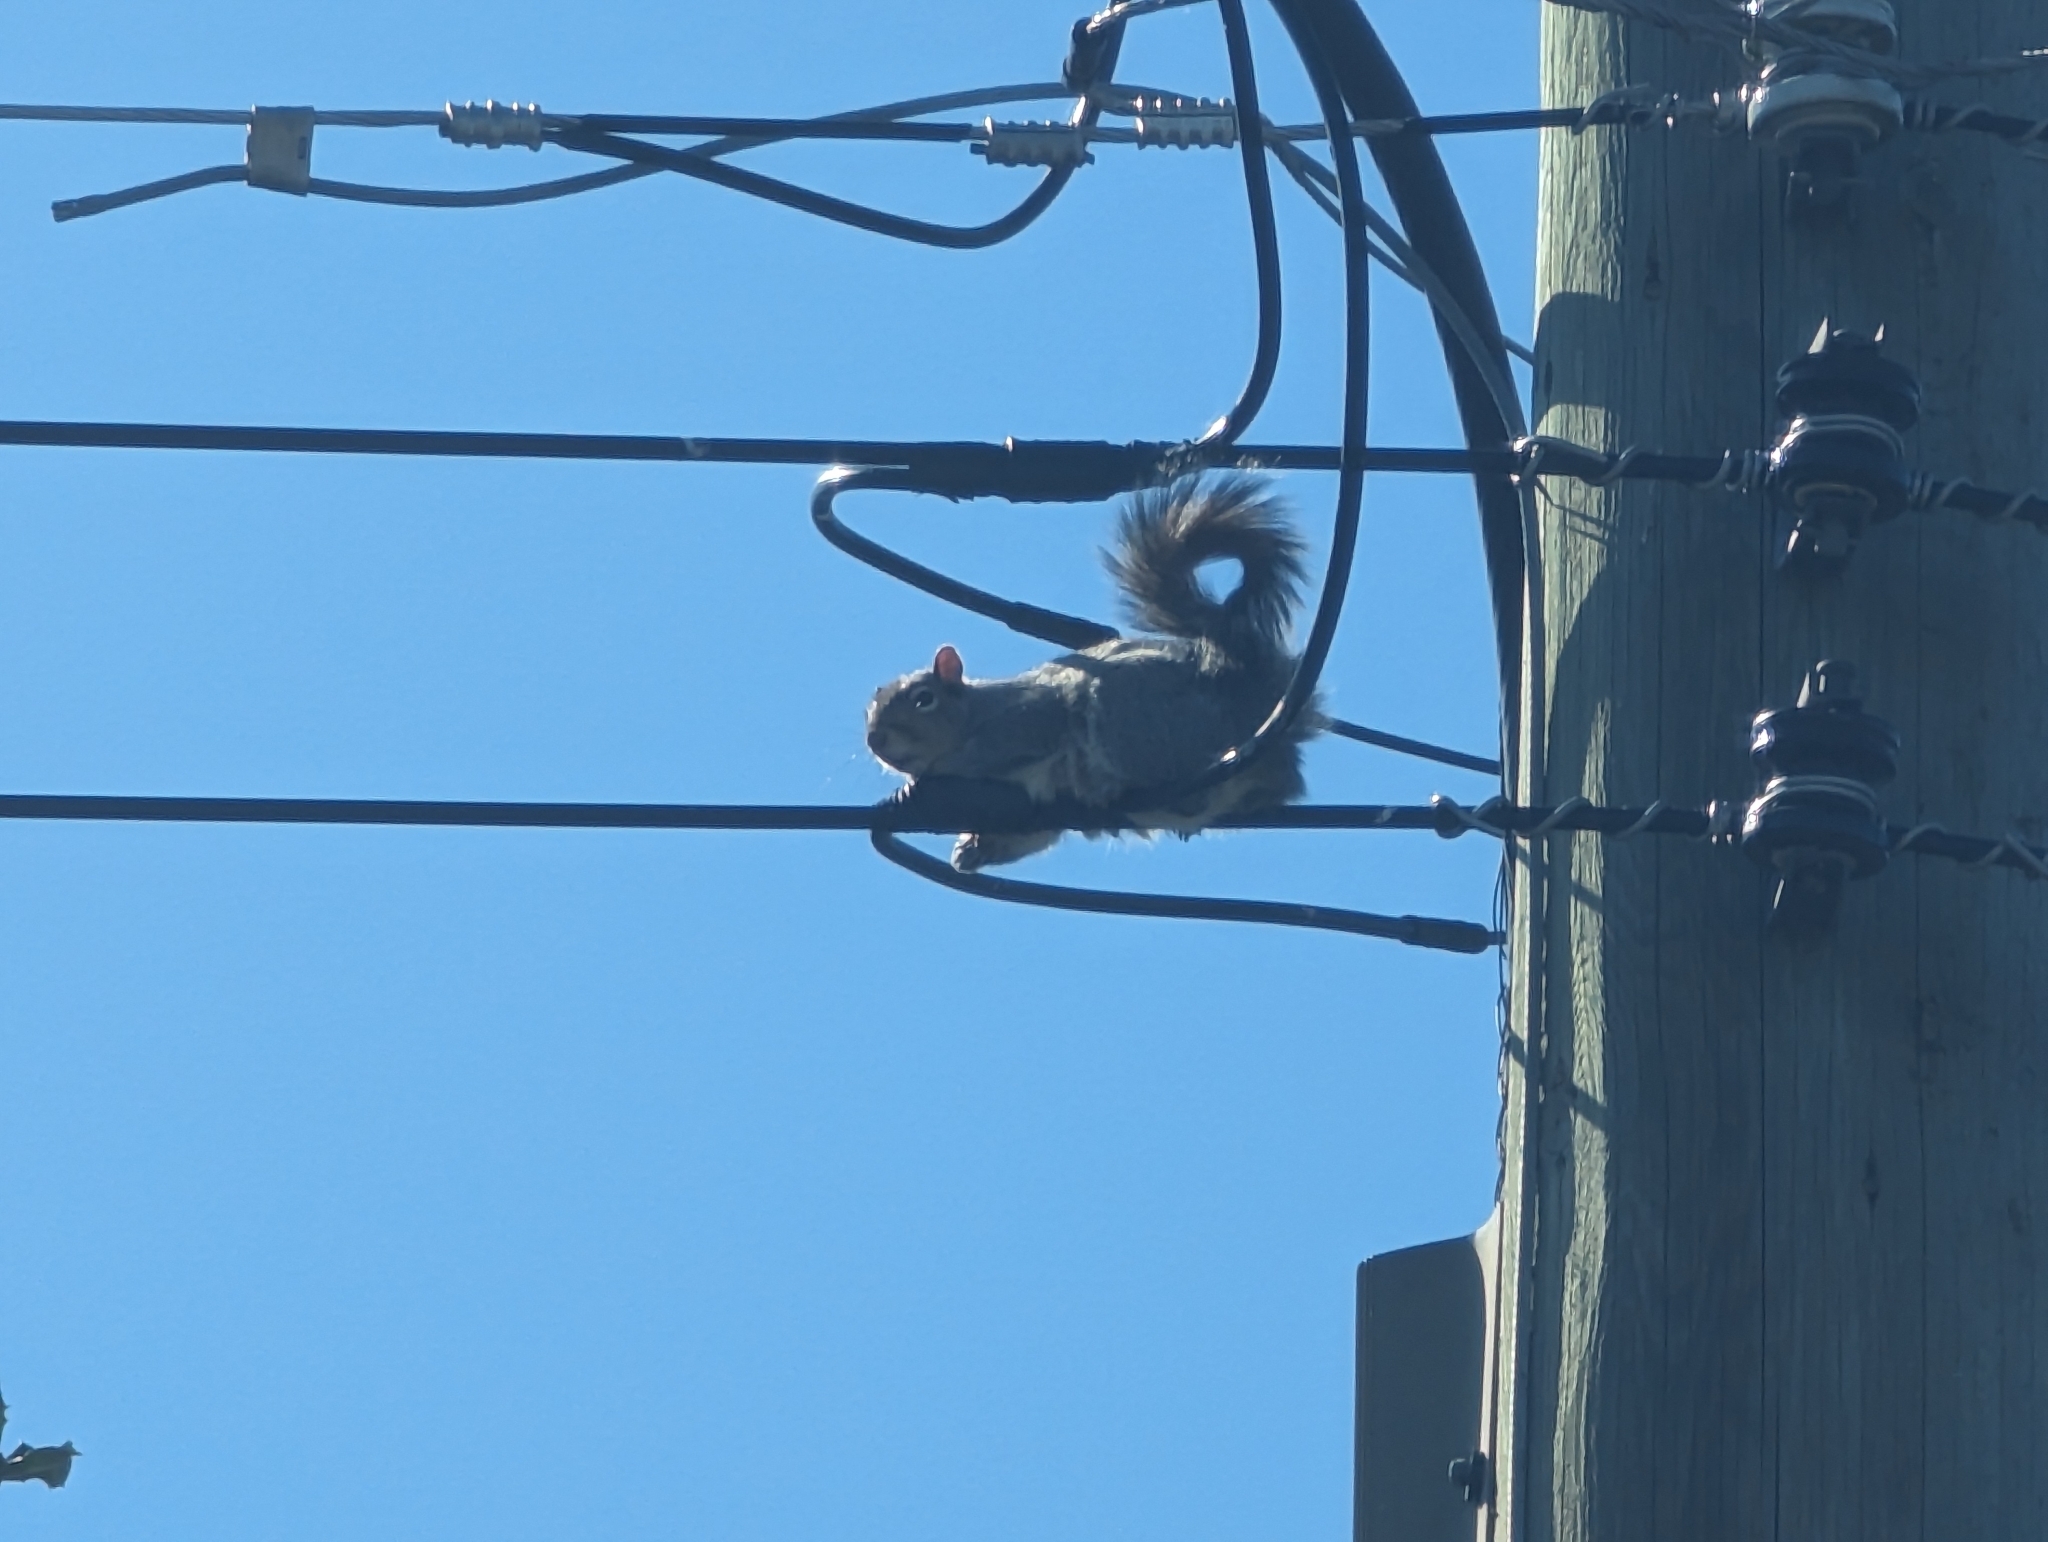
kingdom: Animalia
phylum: Chordata
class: Mammalia
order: Rodentia
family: Sciuridae
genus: Sciurus
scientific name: Sciurus carolinensis
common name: Eastern gray squirrel
